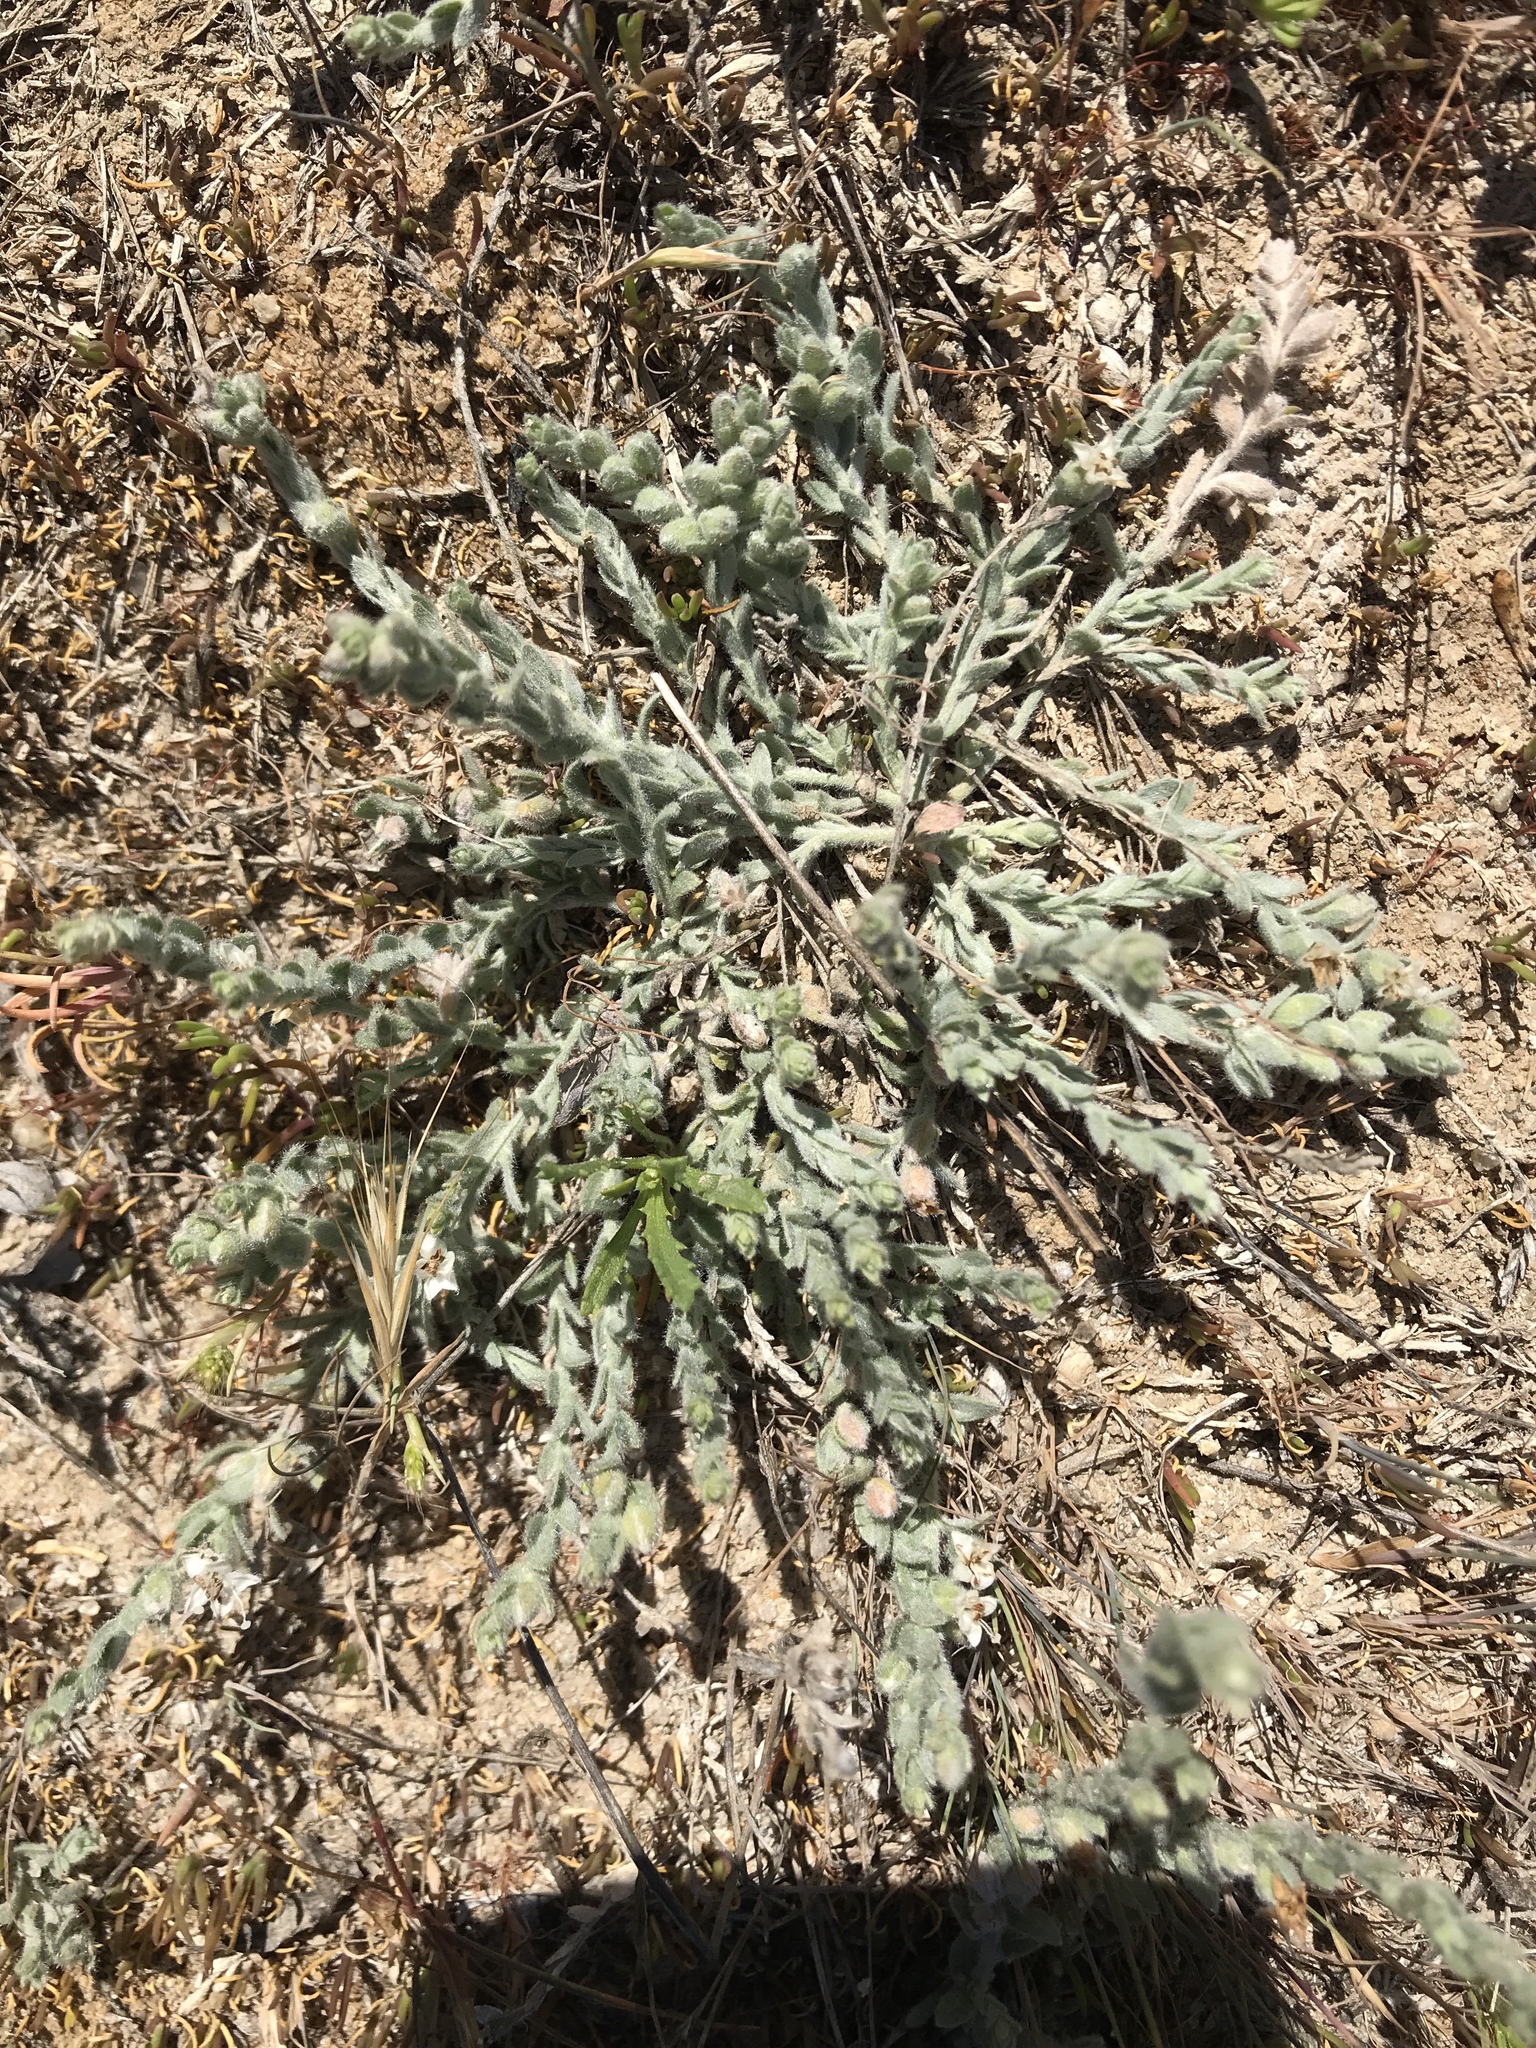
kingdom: Plantae
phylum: Tracheophyta
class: Magnoliopsida
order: Solanales
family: Convolvulaceae
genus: Cressa
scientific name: Cressa truxillensis
